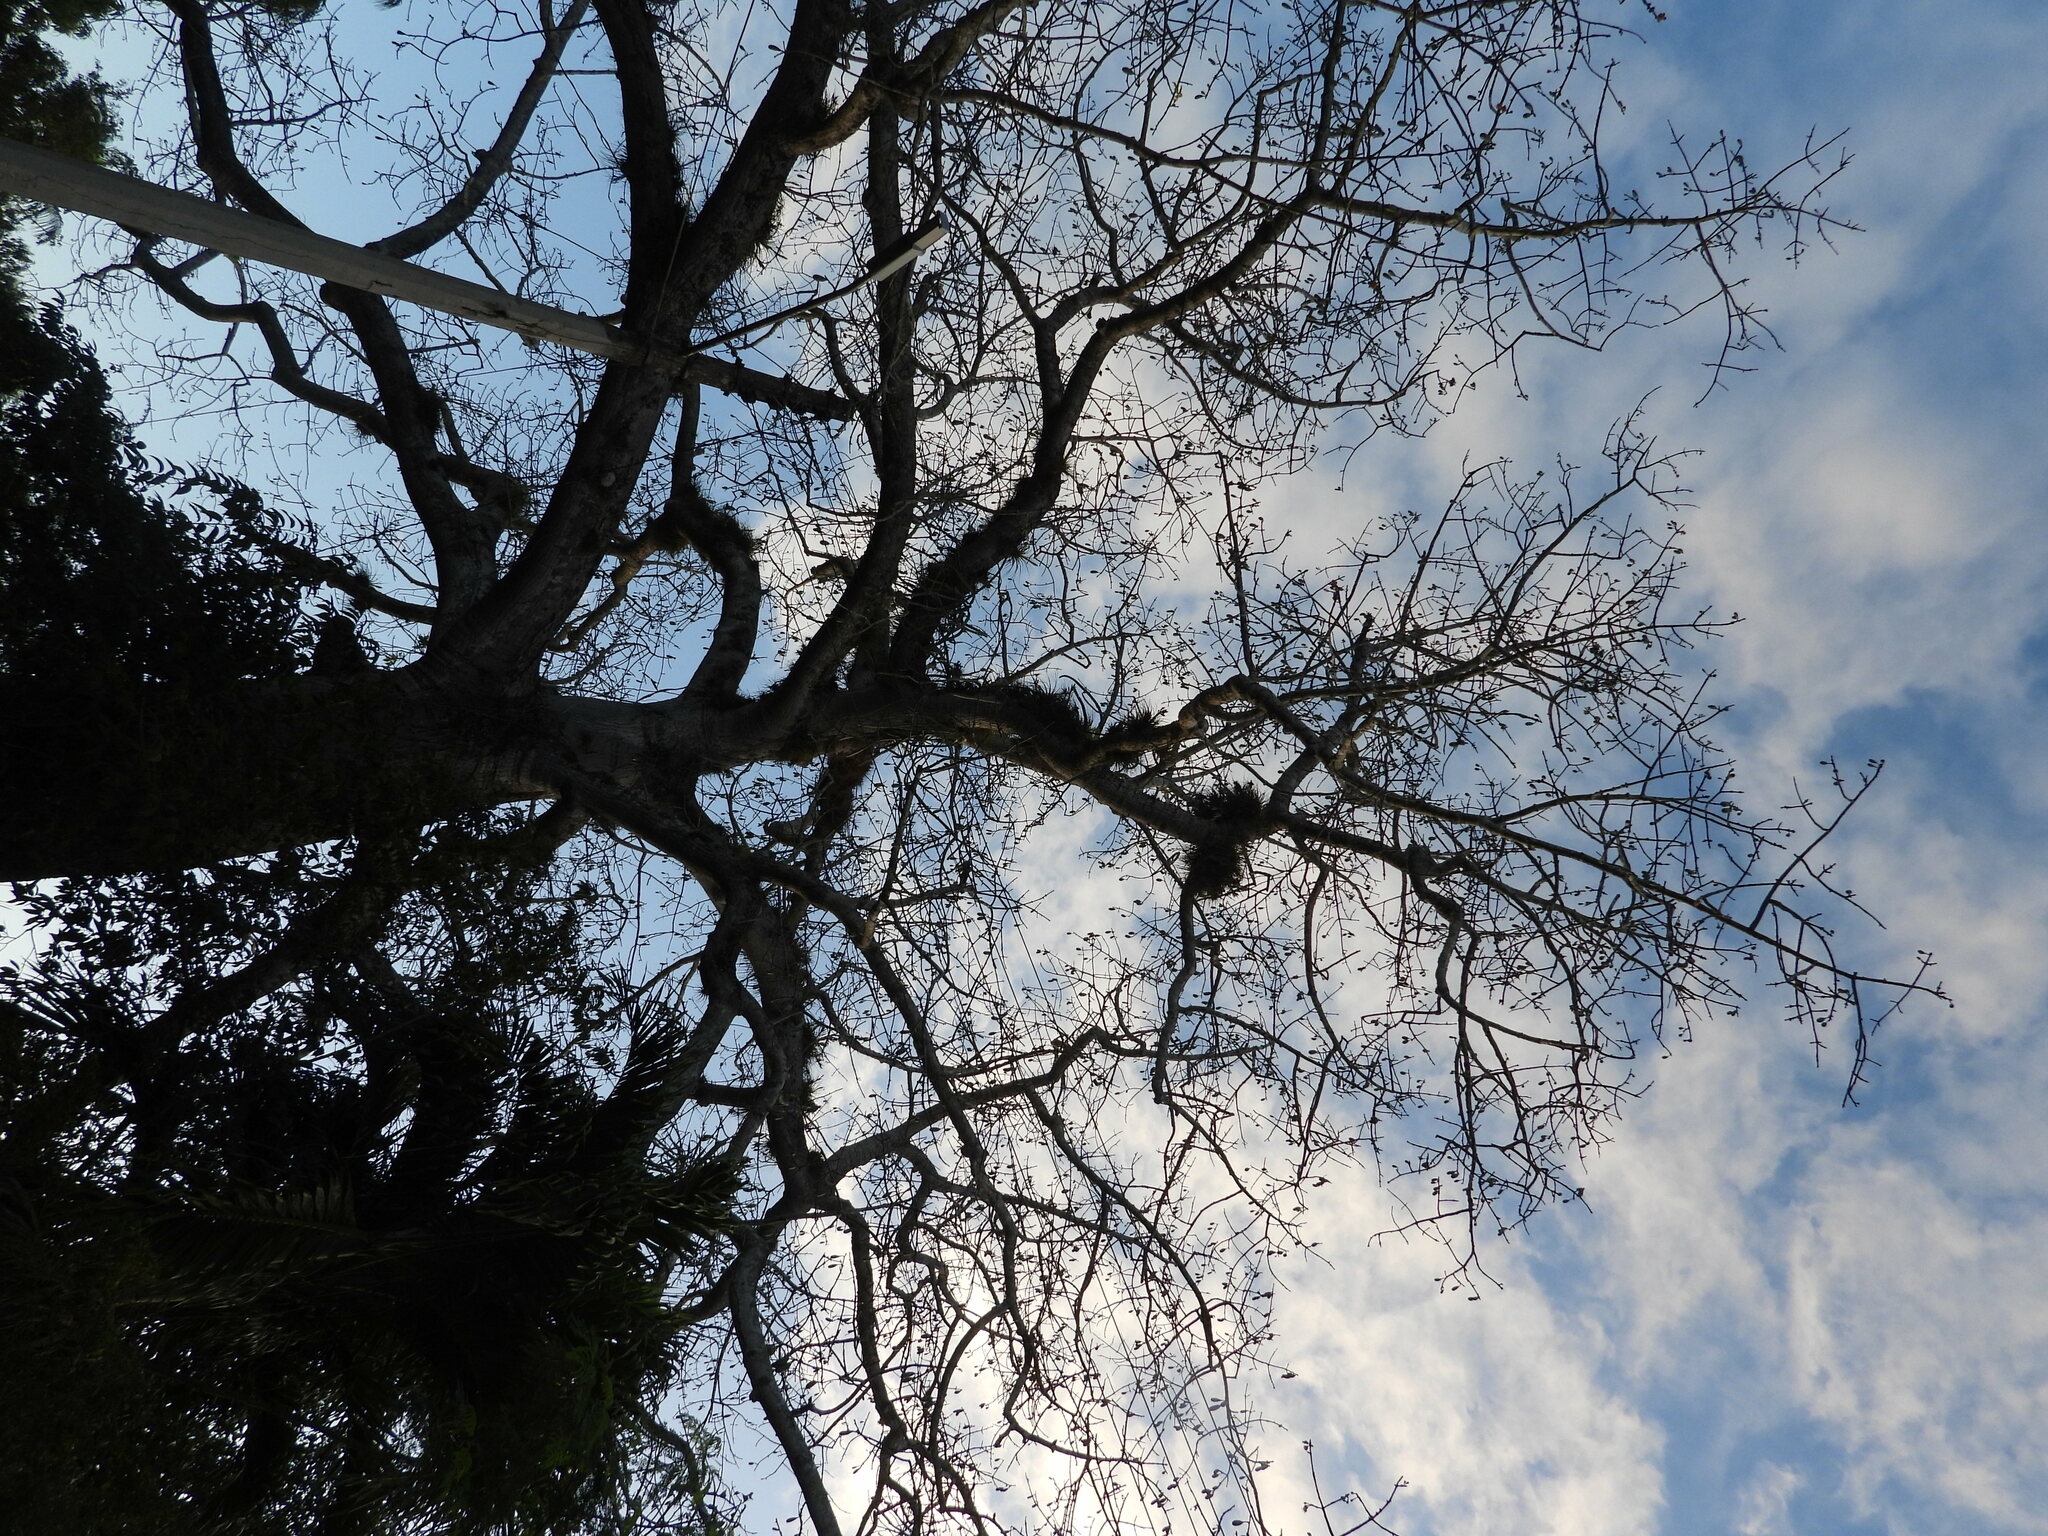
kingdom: Plantae
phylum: Tracheophyta
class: Magnoliopsida
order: Malvales
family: Malvaceae
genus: Ceiba
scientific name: Ceiba pentandra
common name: Kapok
